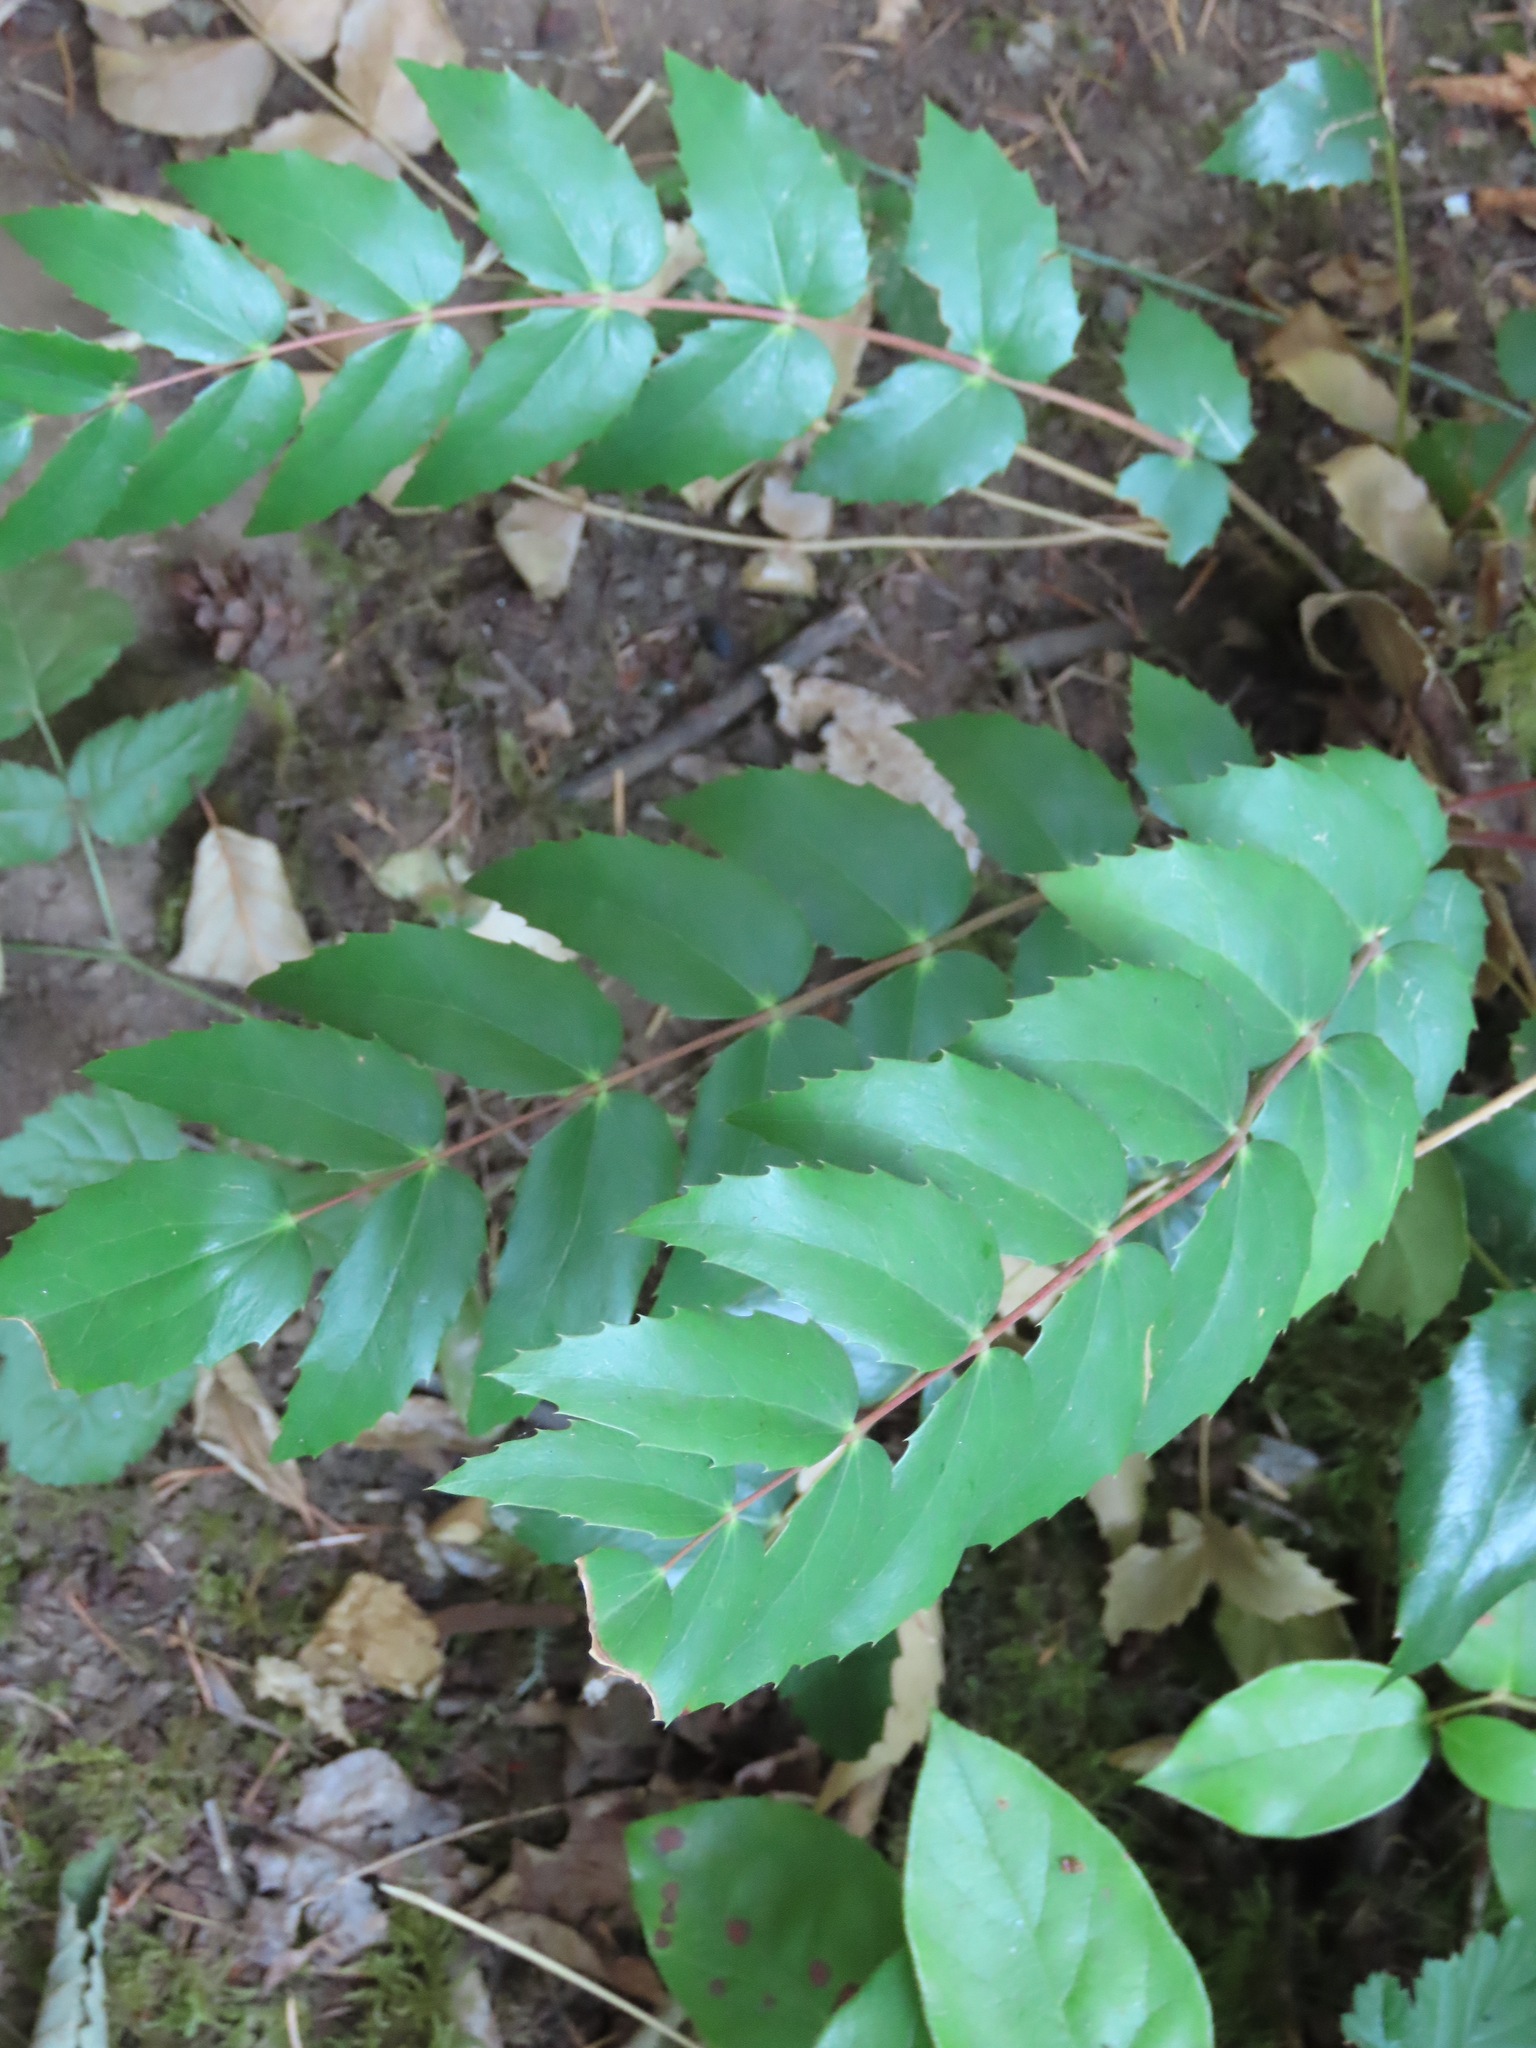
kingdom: Plantae
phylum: Tracheophyta
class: Magnoliopsida
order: Ranunculales
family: Berberidaceae
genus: Mahonia
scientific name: Mahonia nervosa
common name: Cascade oregon-grape
